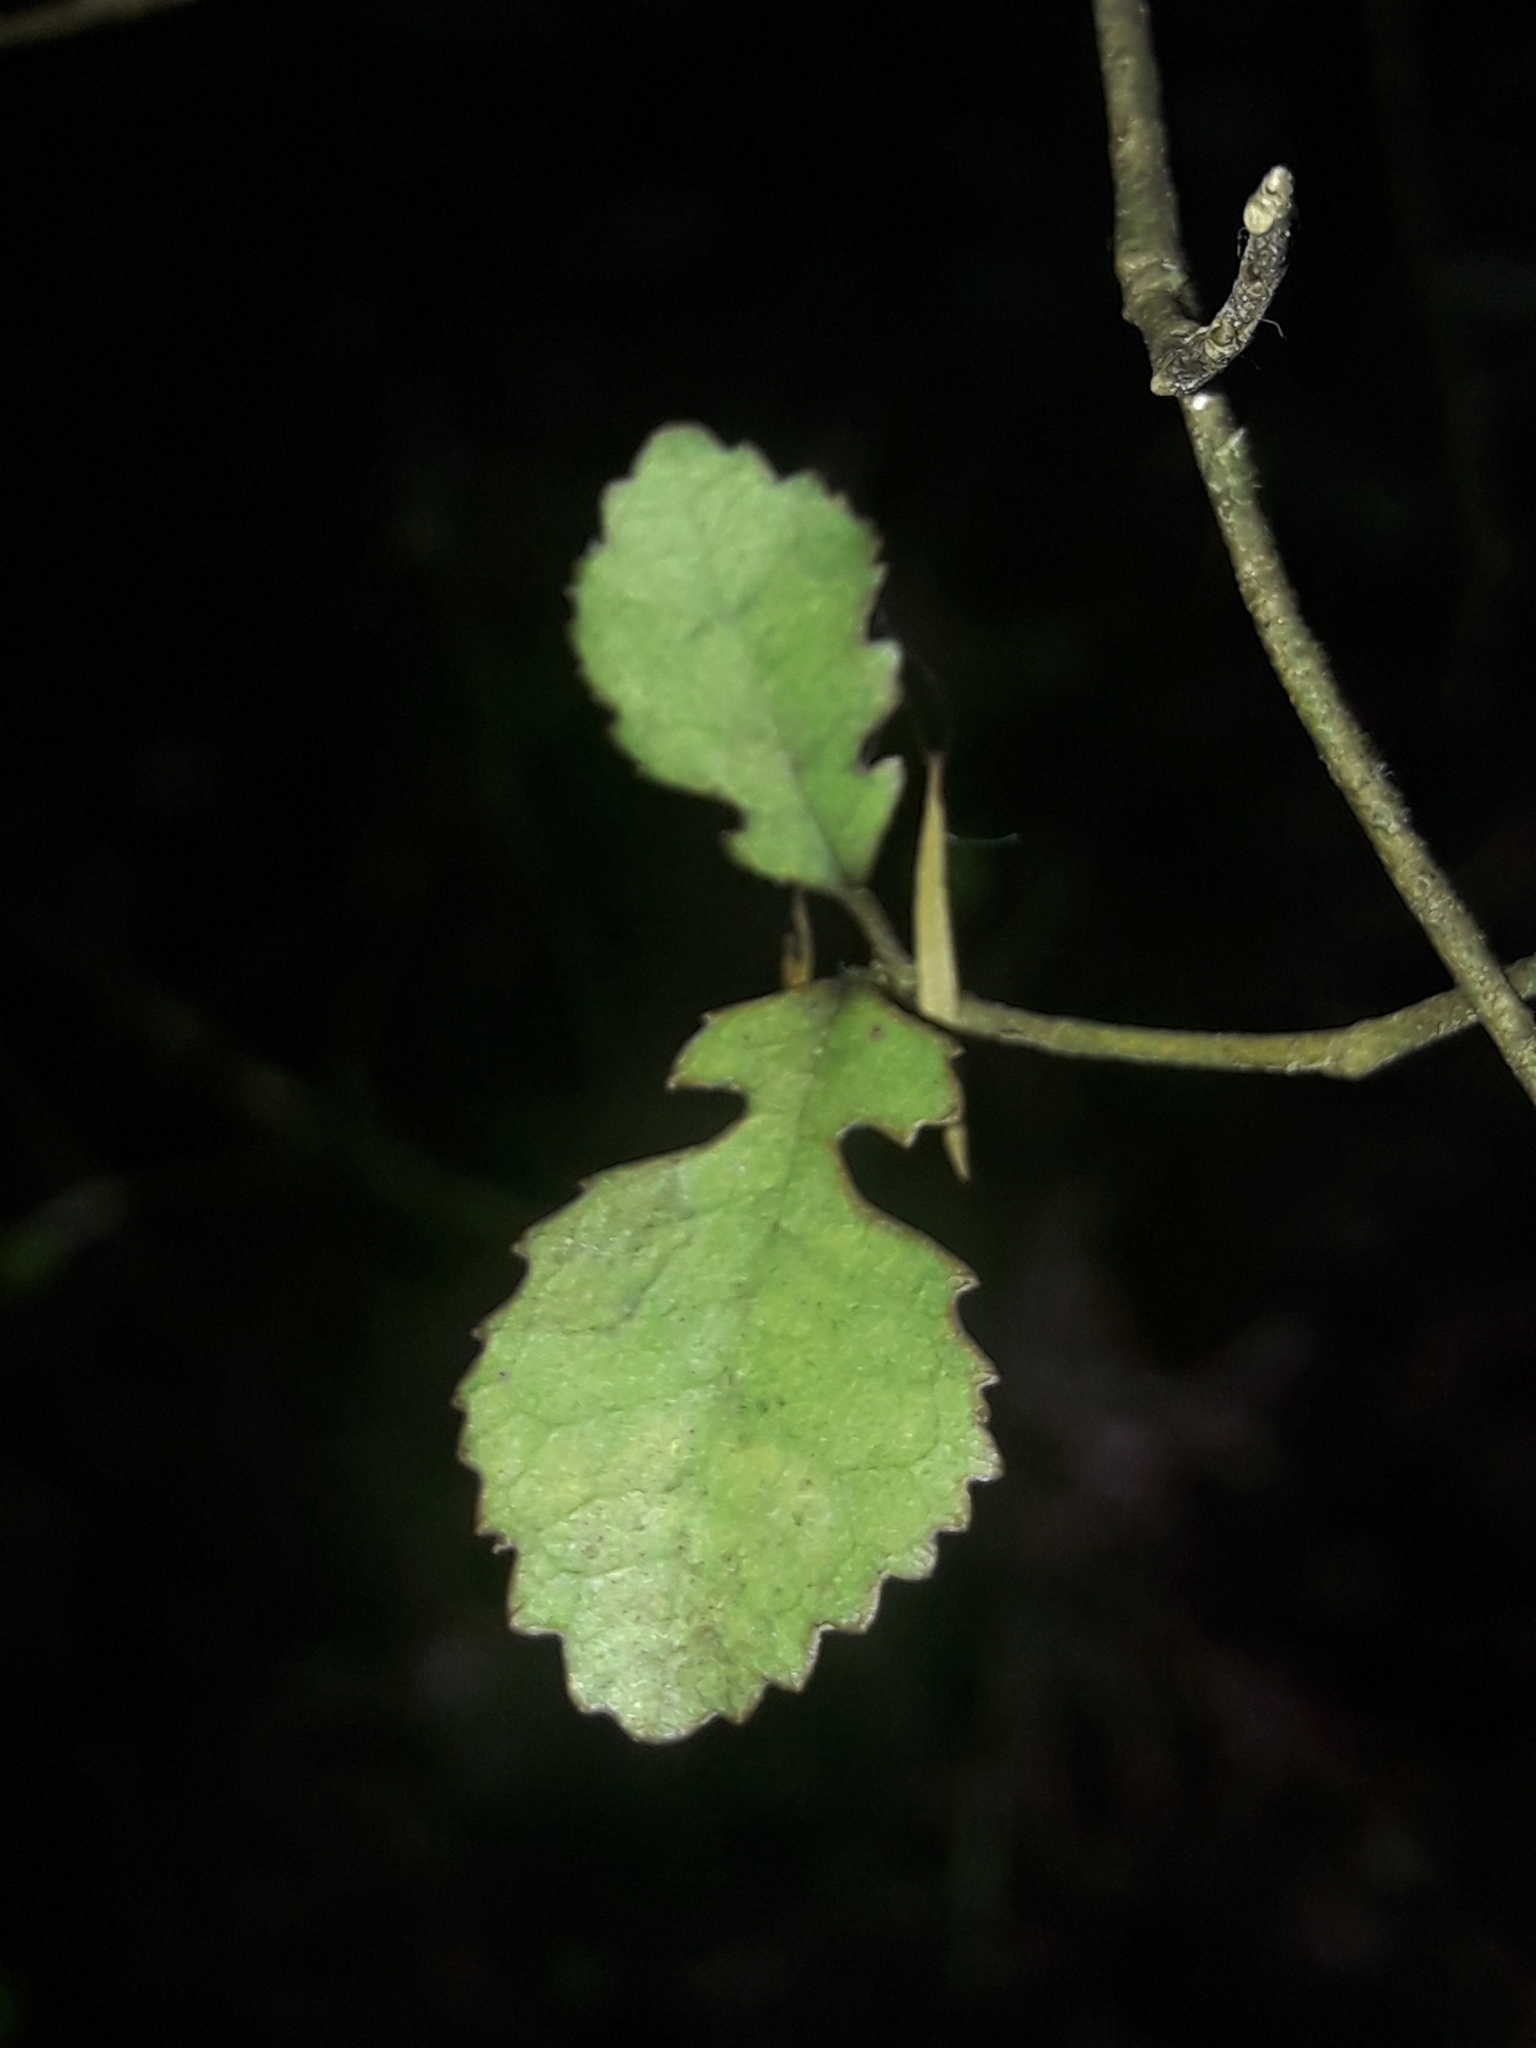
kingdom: Plantae
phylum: Tracheophyta
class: Magnoliopsida
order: Rosales
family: Moraceae
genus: Paratrophis
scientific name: Paratrophis microphylla
